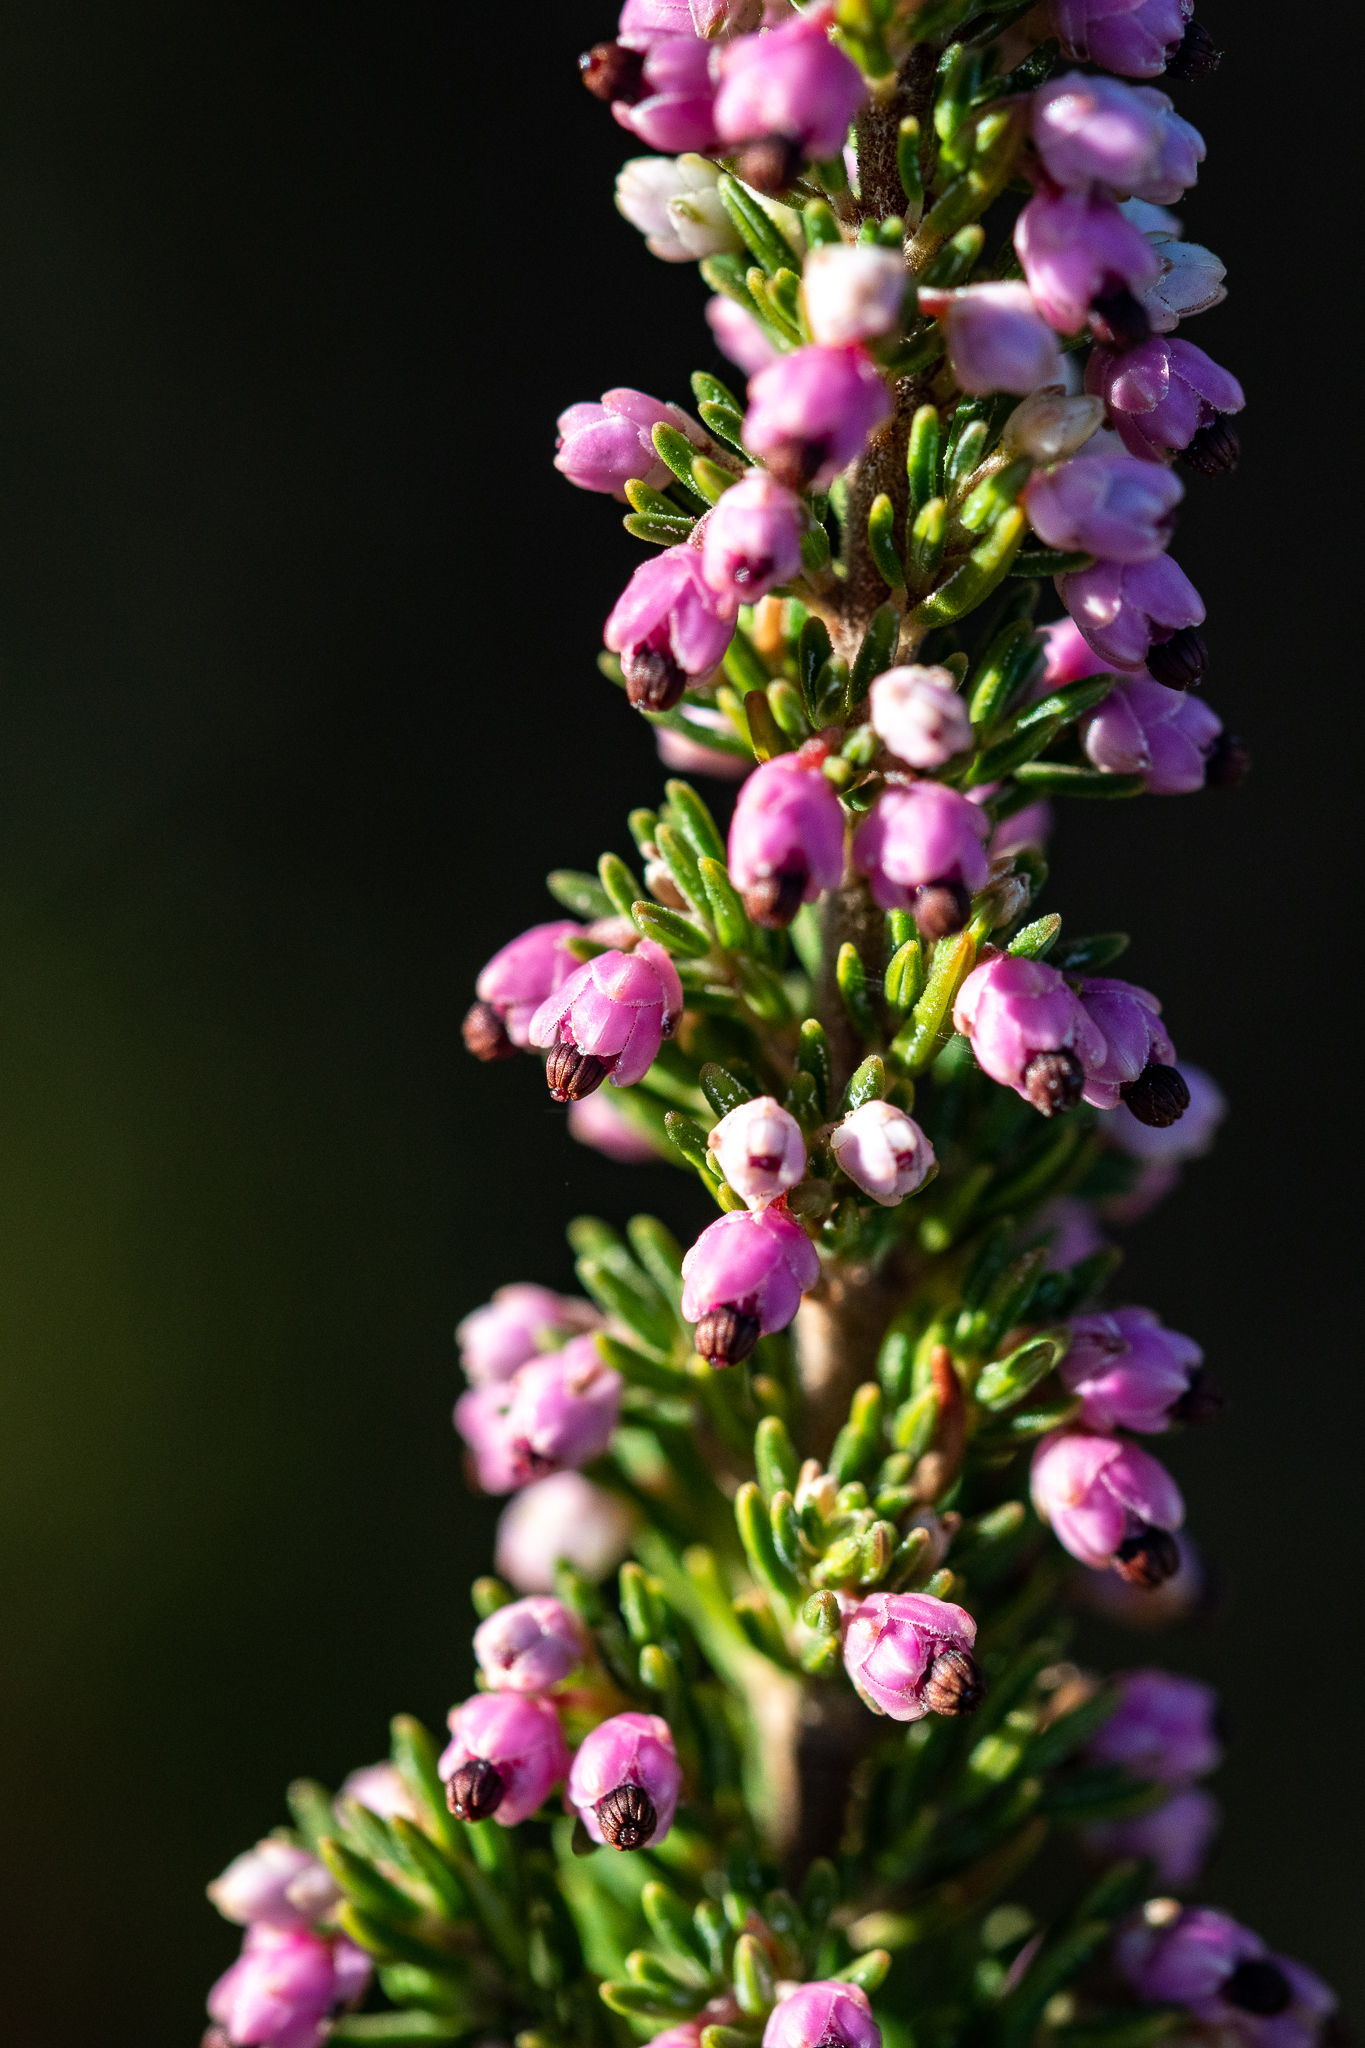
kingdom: Plantae
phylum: Tracheophyta
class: Magnoliopsida
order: Ericales
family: Ericaceae
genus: Erica
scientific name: Erica placentiflora
